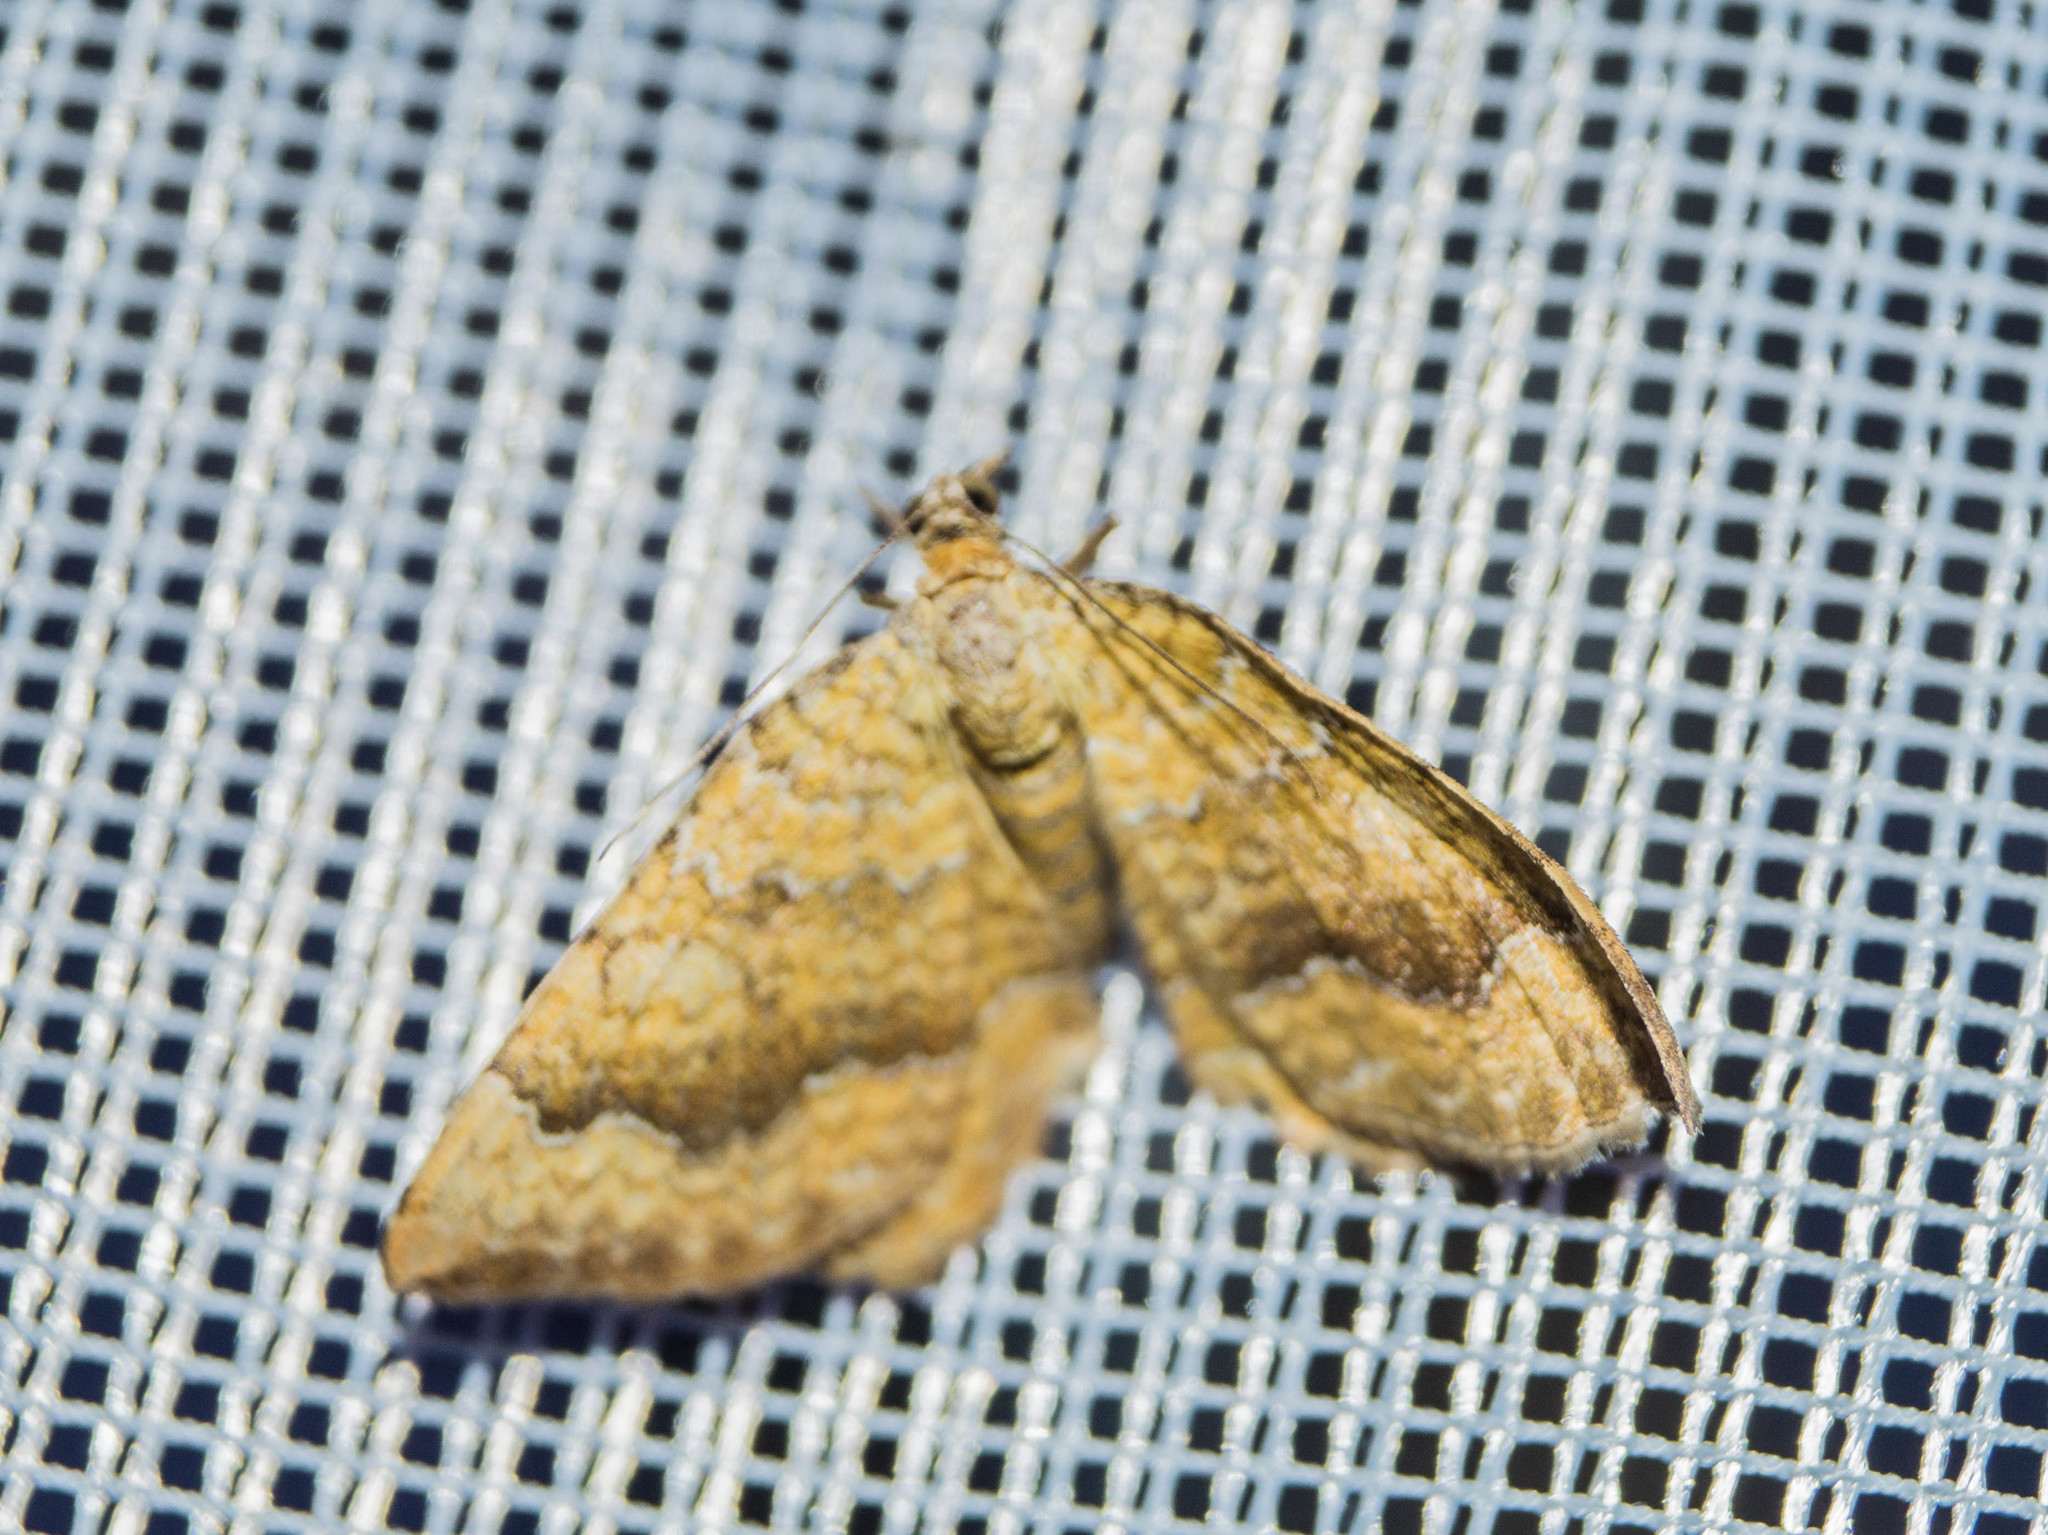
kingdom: Animalia
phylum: Arthropoda
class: Insecta
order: Lepidoptera
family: Geometridae
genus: Camptogramma
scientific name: Camptogramma bilineata
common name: Yellow shell
